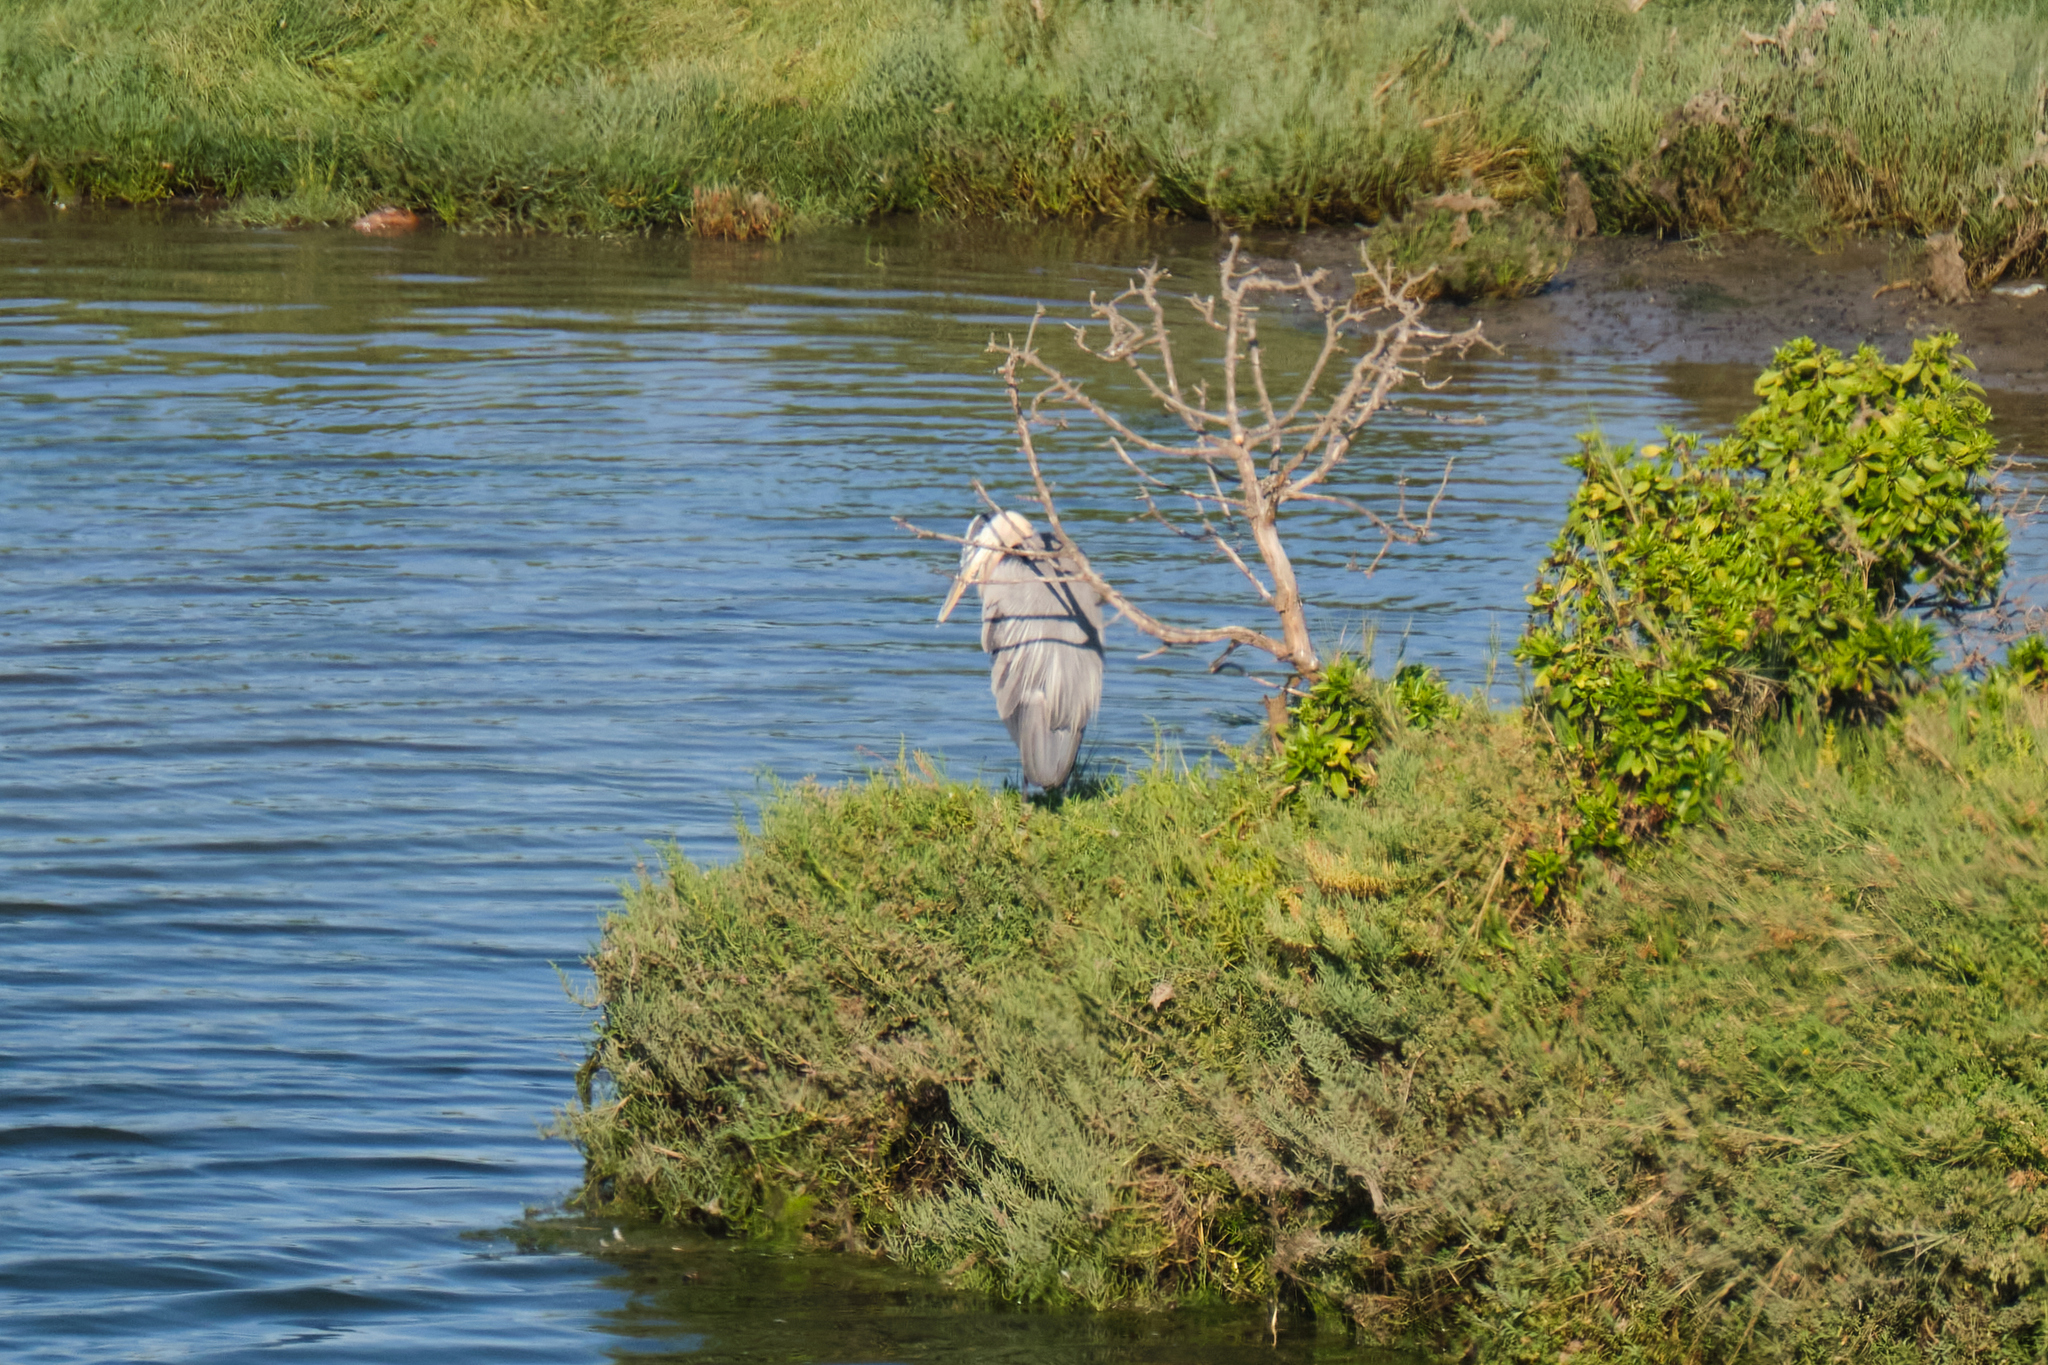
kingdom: Animalia
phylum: Chordata
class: Aves
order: Pelecaniformes
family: Ardeidae
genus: Ardea
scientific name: Ardea herodias
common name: Great blue heron
